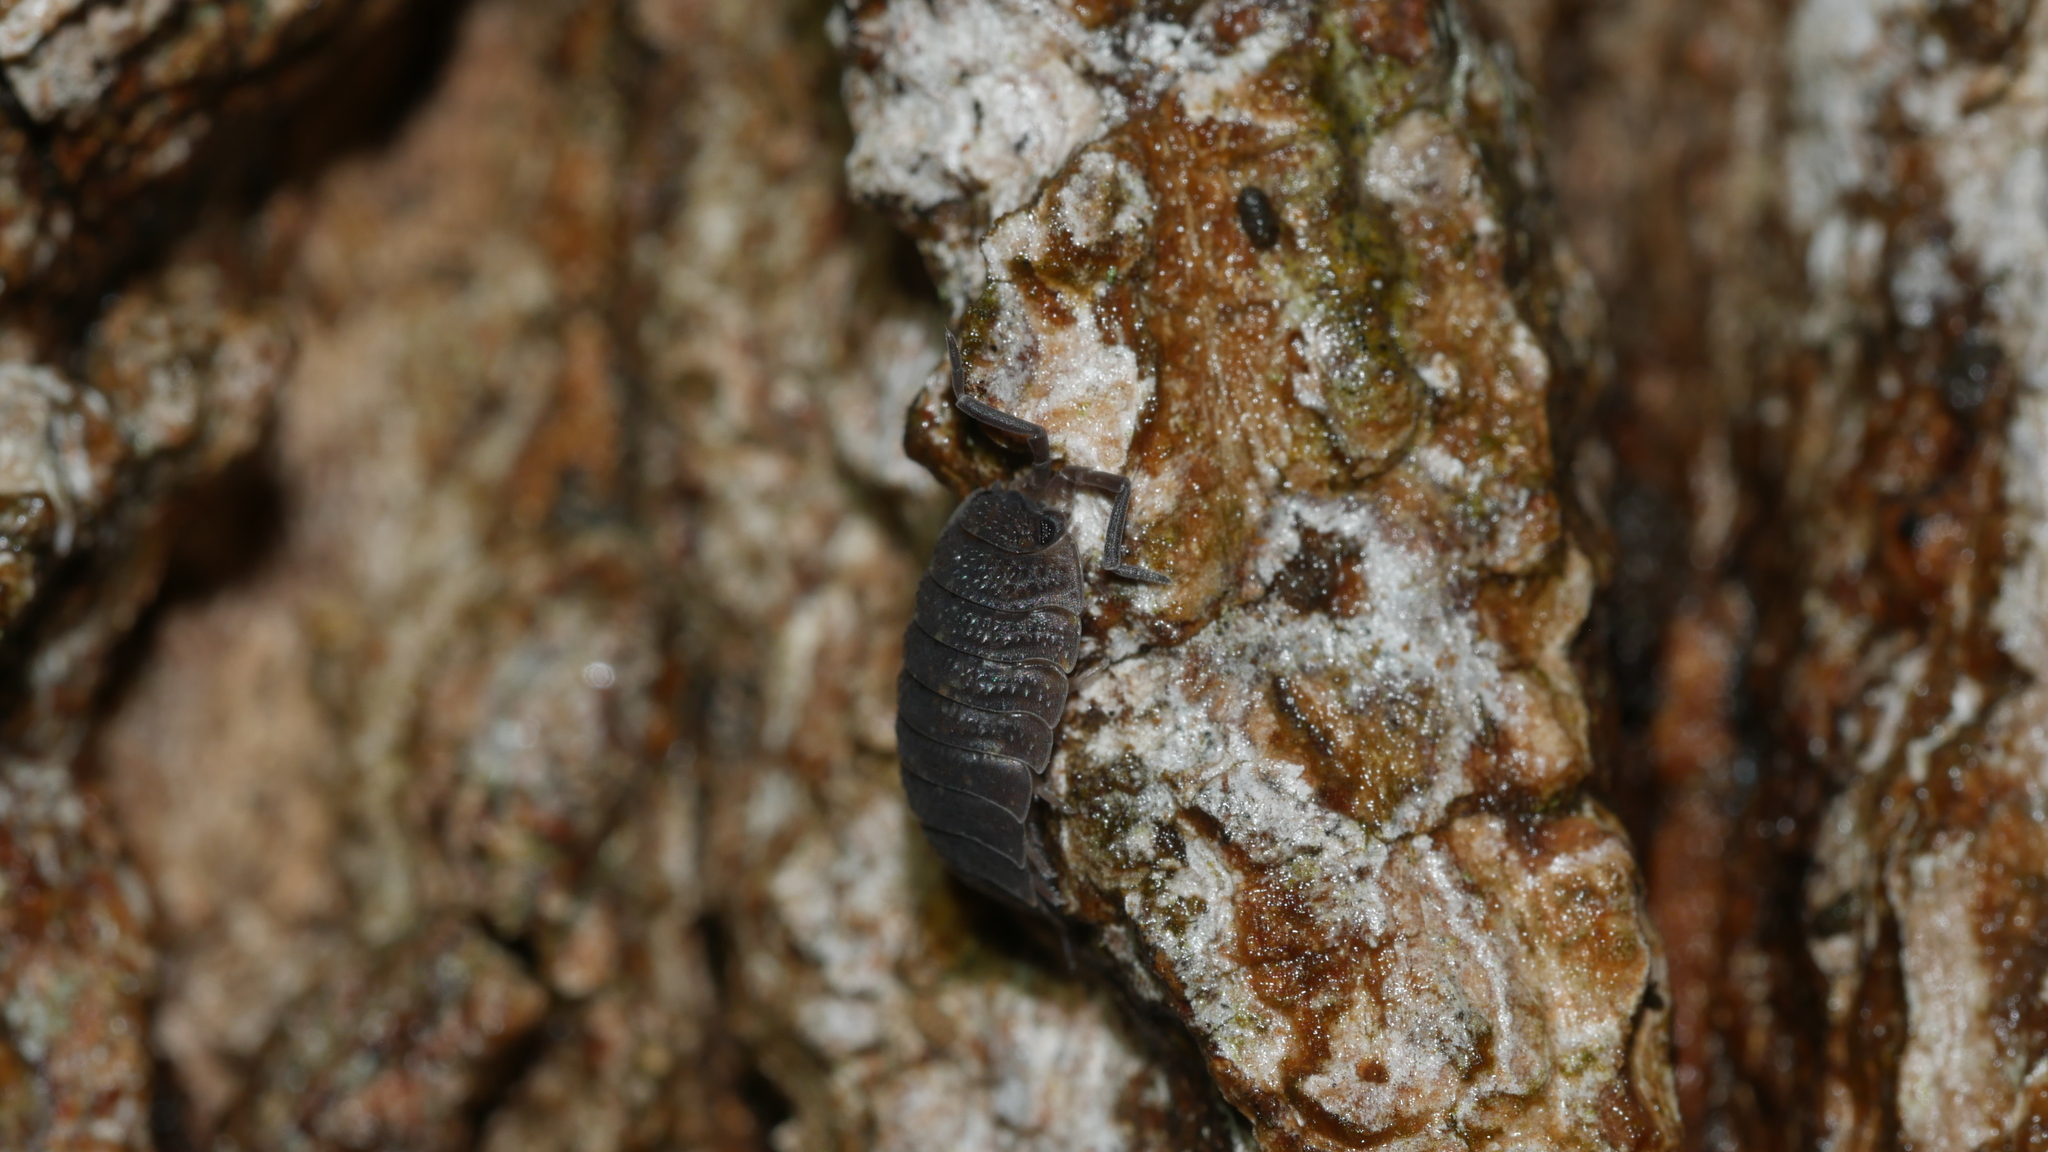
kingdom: Animalia
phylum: Arthropoda
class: Malacostraca
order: Isopoda
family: Porcellionidae
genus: Porcellio
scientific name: Porcellio scaber
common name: Common rough woodlouse
